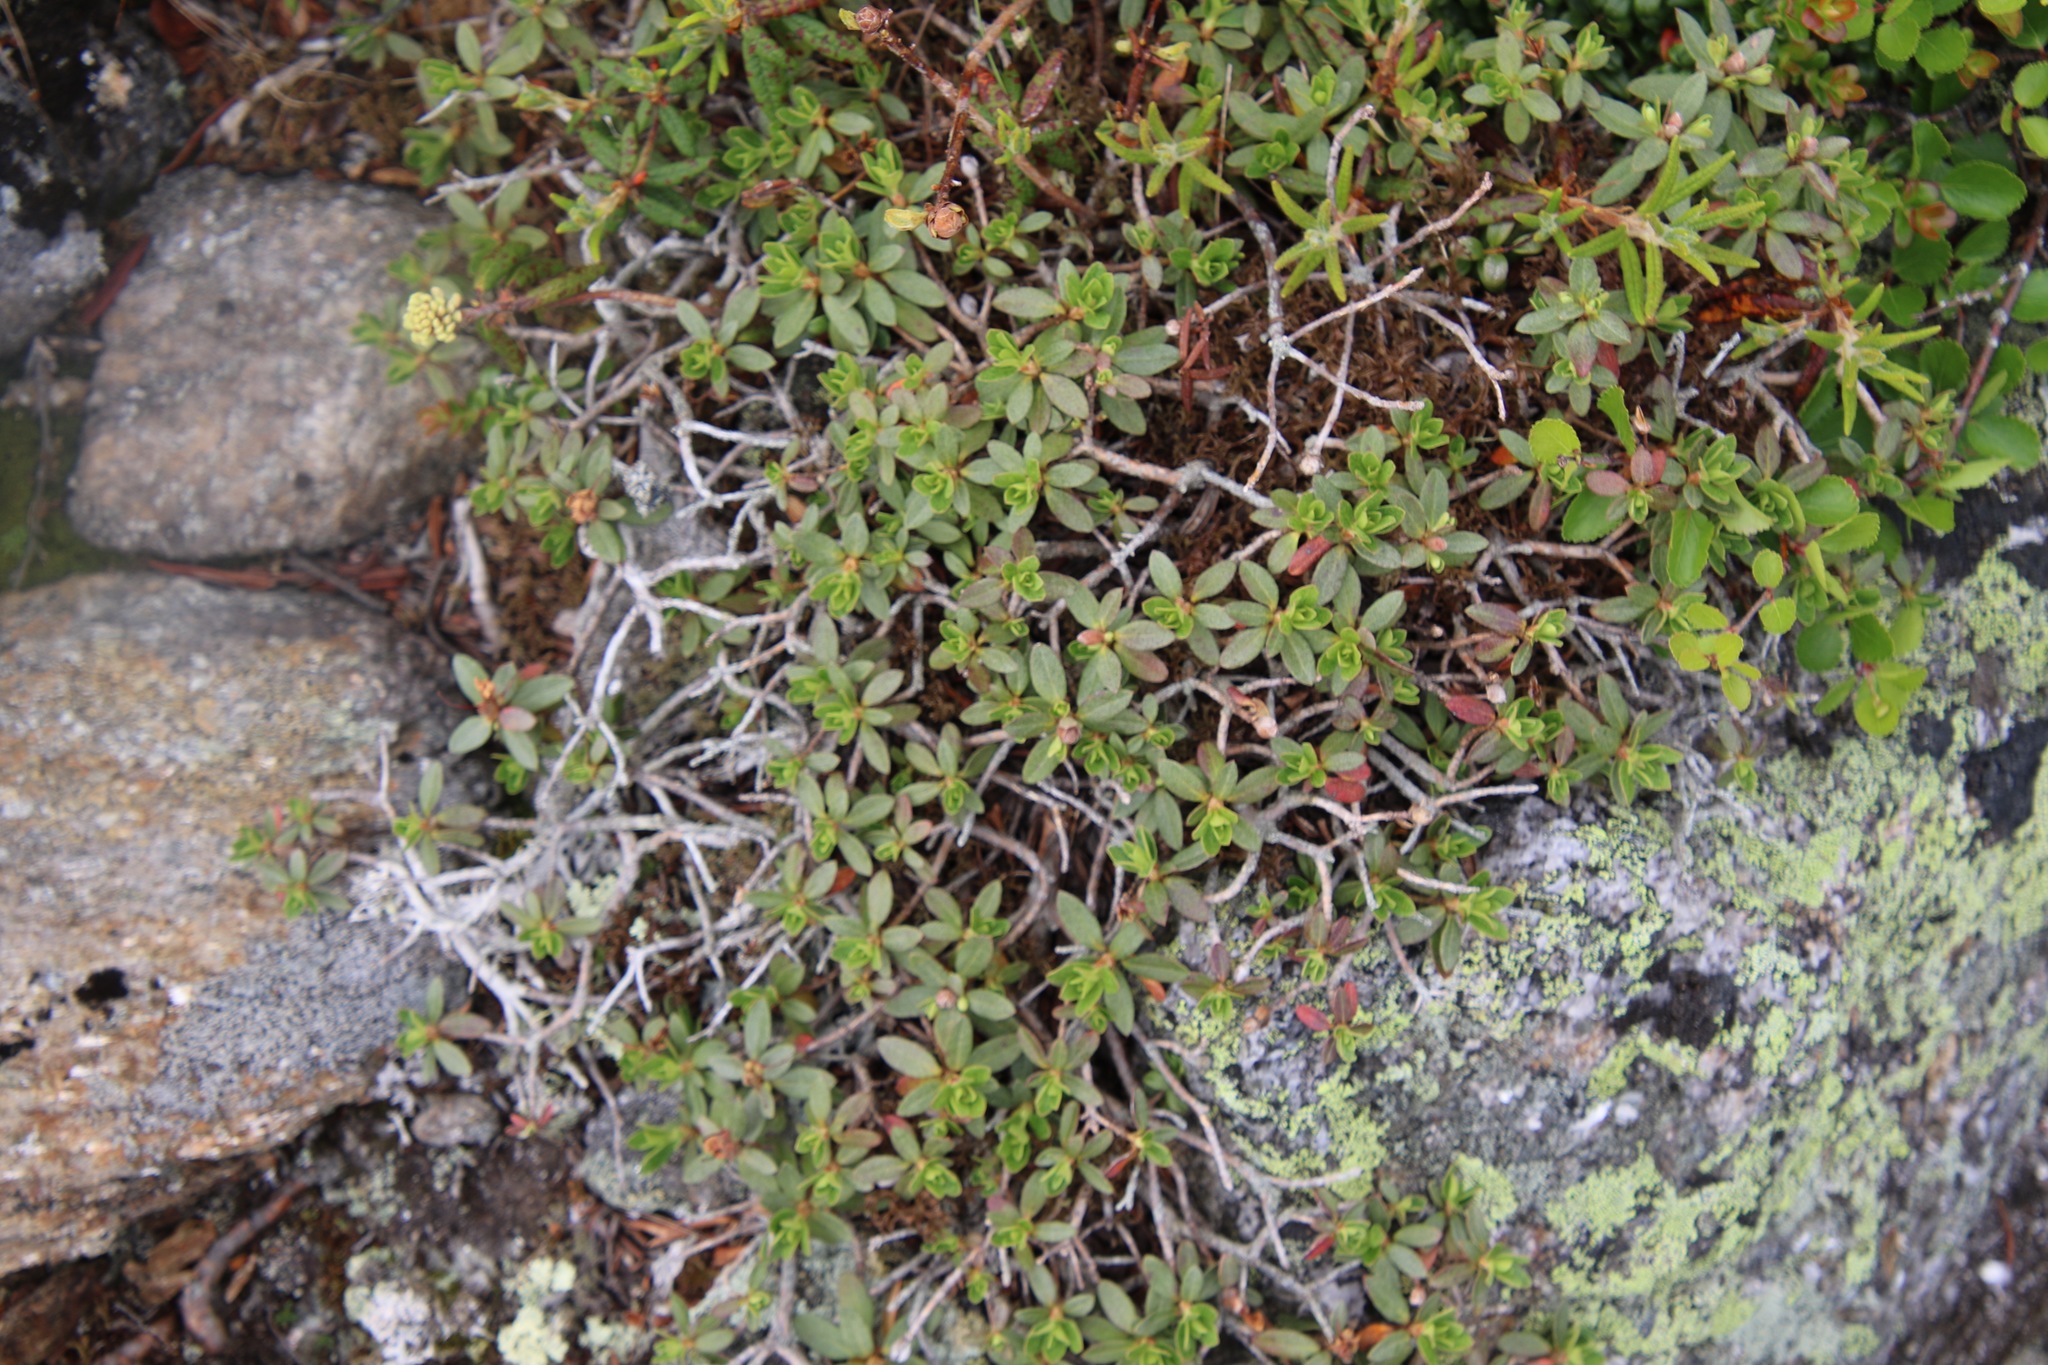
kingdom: Plantae
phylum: Tracheophyta
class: Magnoliopsida
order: Ericales
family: Ericaceae
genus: Rhododendron
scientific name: Rhododendron lapponicum
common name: Lapland rhododendron
